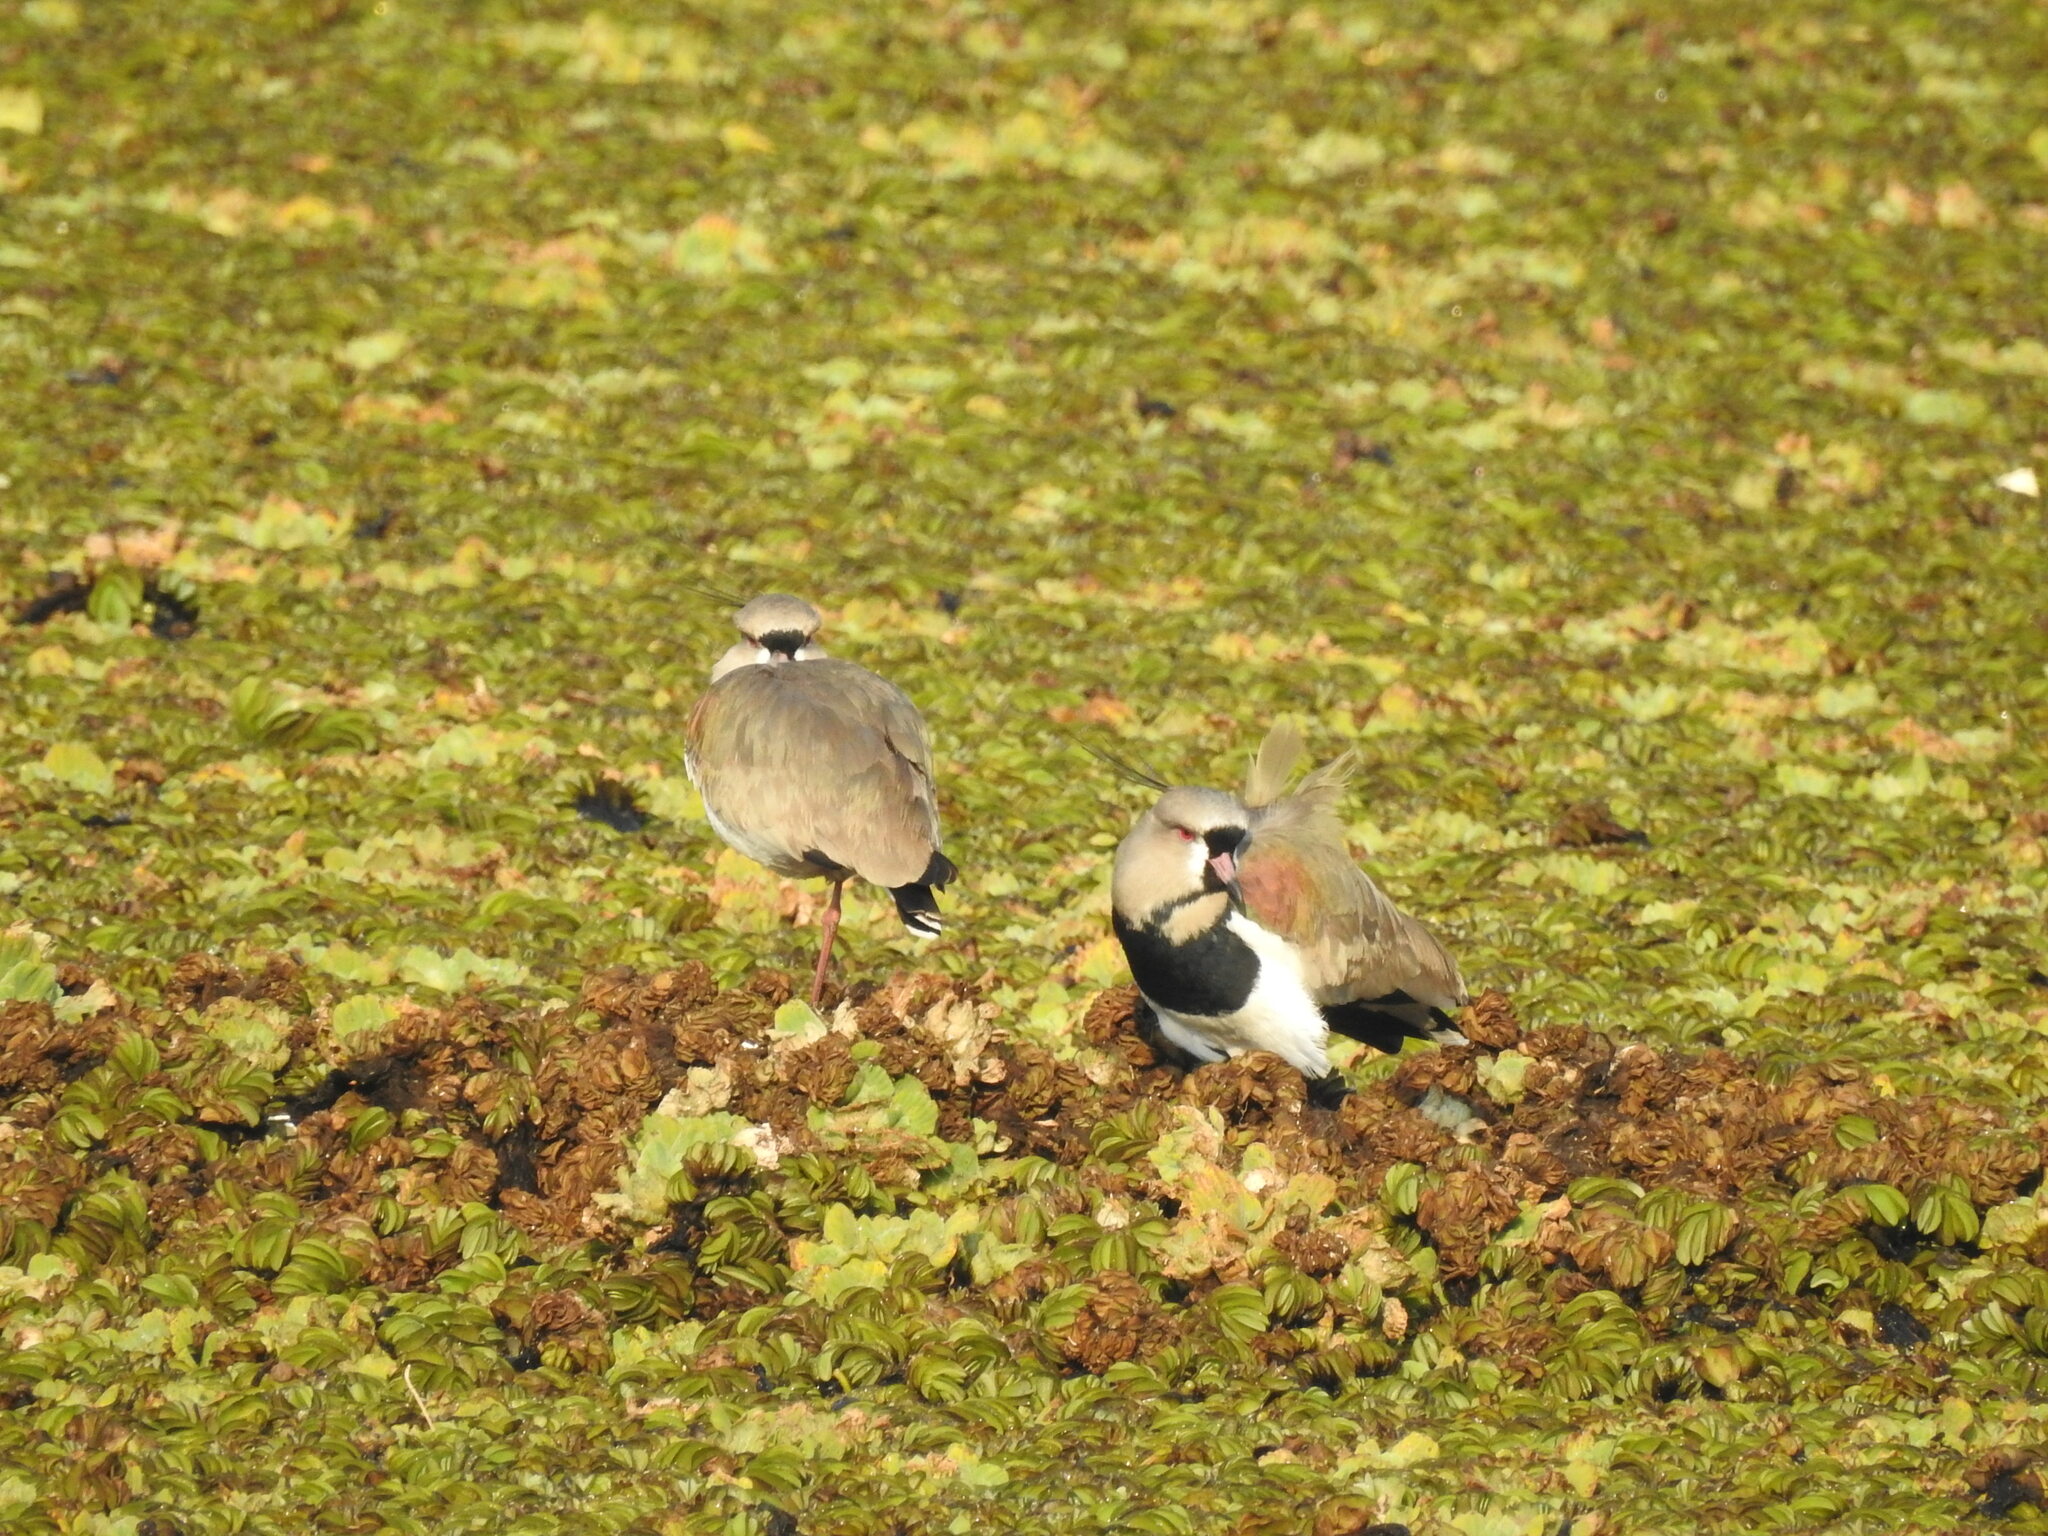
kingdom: Animalia
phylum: Chordata
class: Aves
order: Charadriiformes
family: Charadriidae
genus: Vanellus
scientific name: Vanellus chilensis
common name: Southern lapwing
